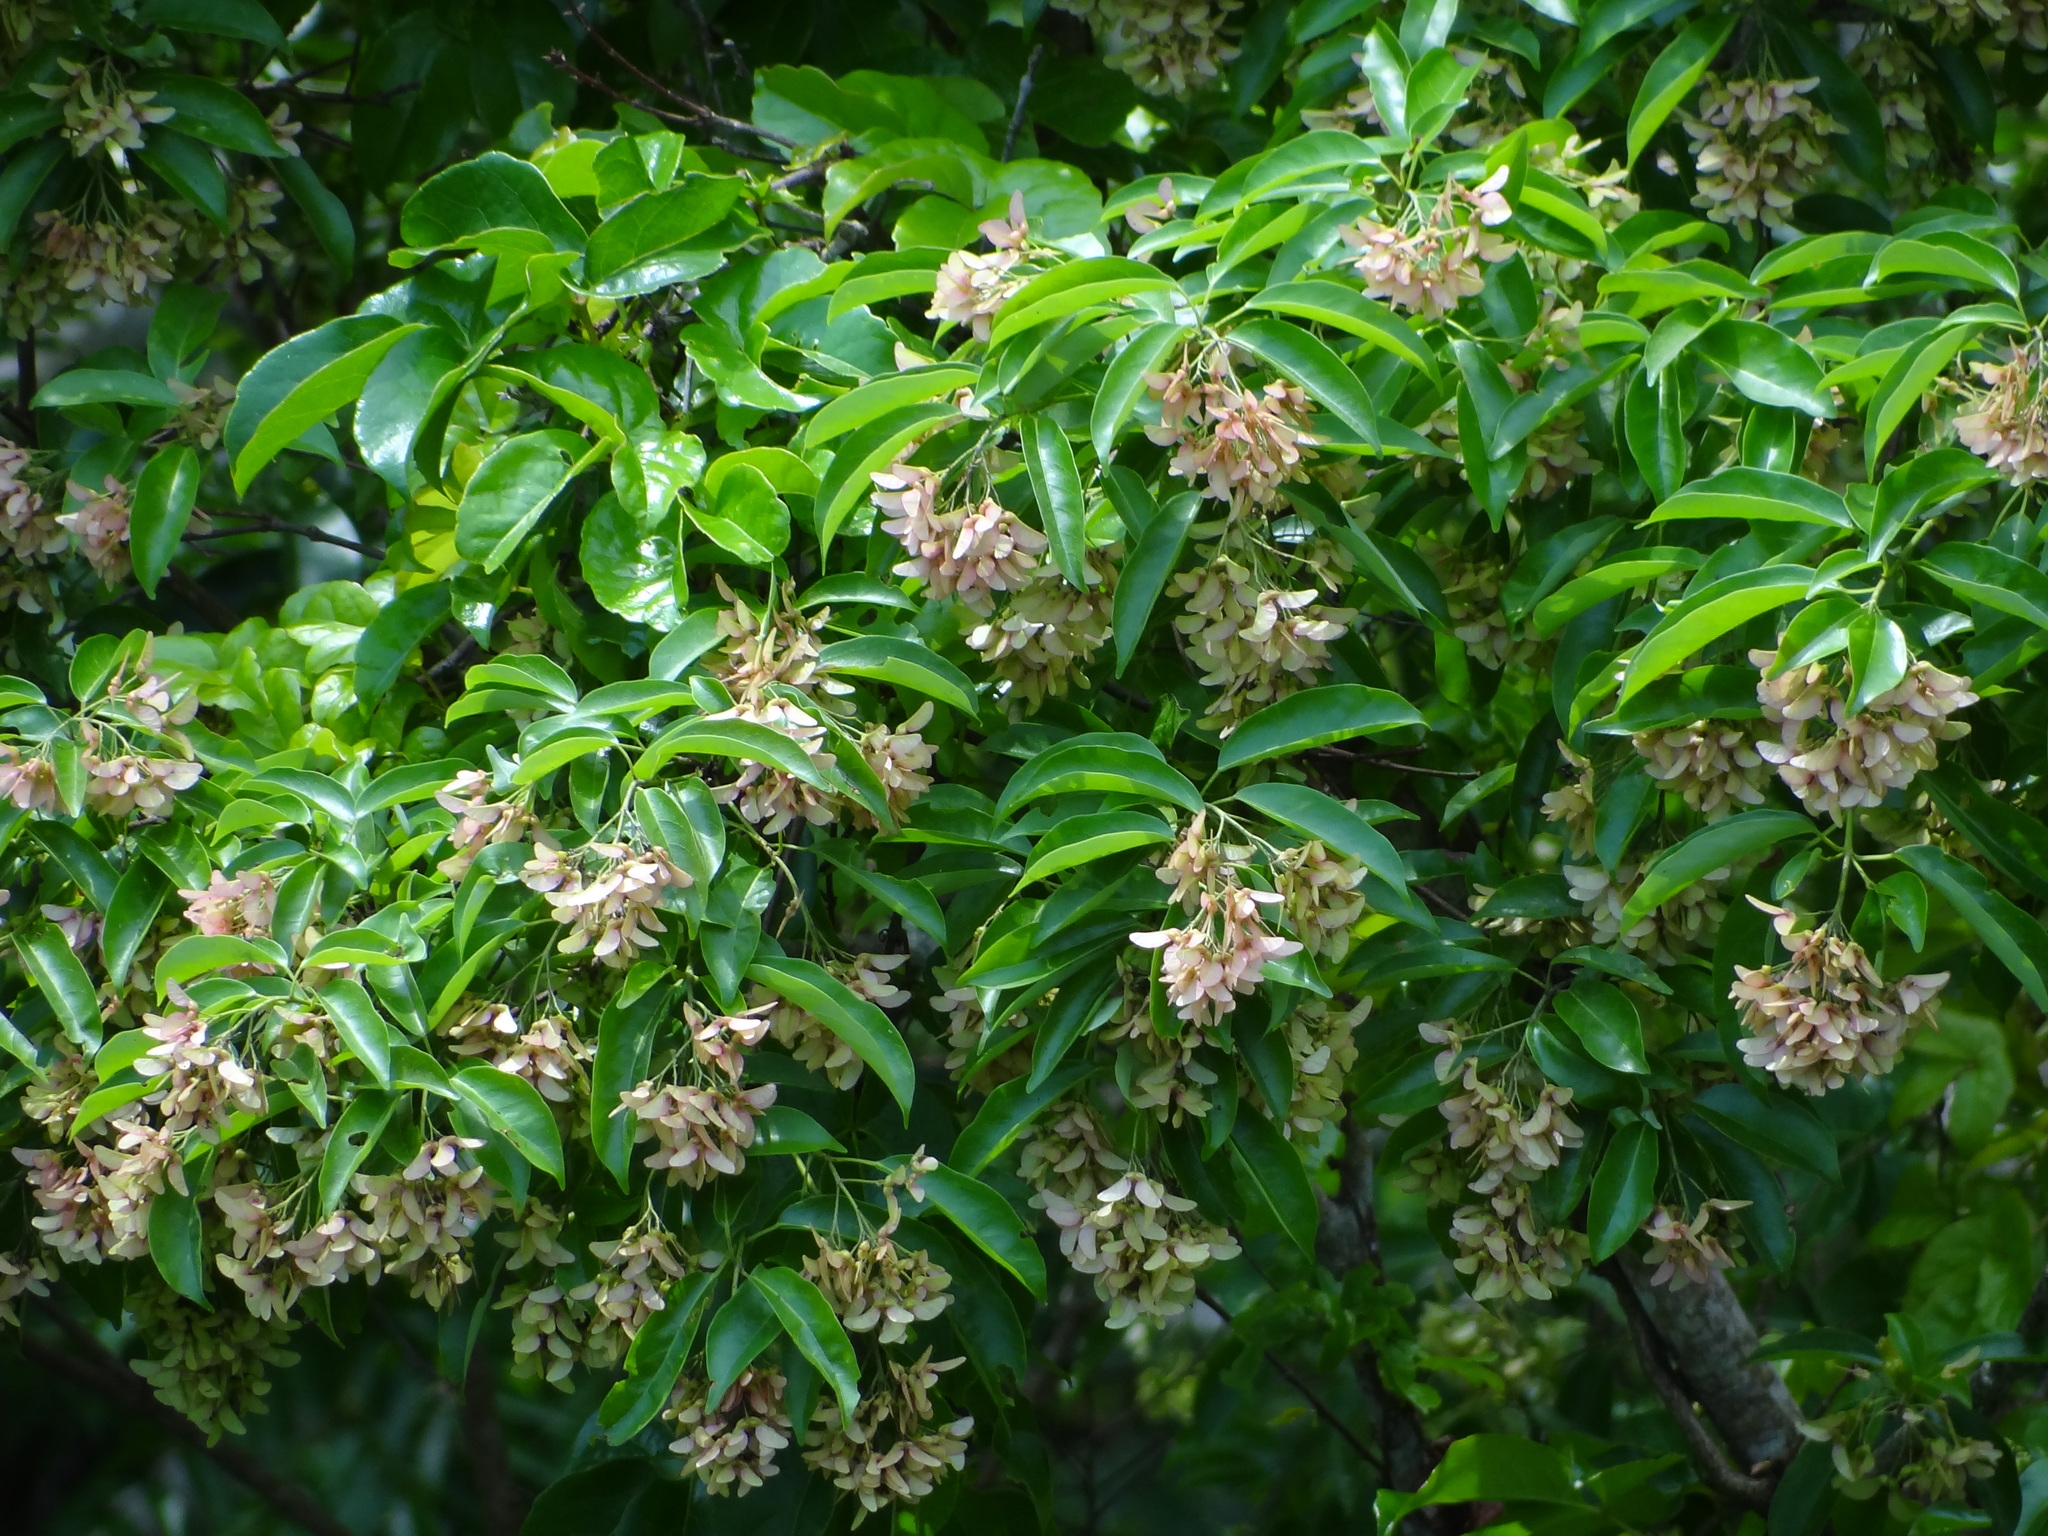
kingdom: Plantae
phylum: Tracheophyta
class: Magnoliopsida
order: Sapindales
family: Sapindaceae
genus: Acer
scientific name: Acer oblongum
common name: Himalayan maple
